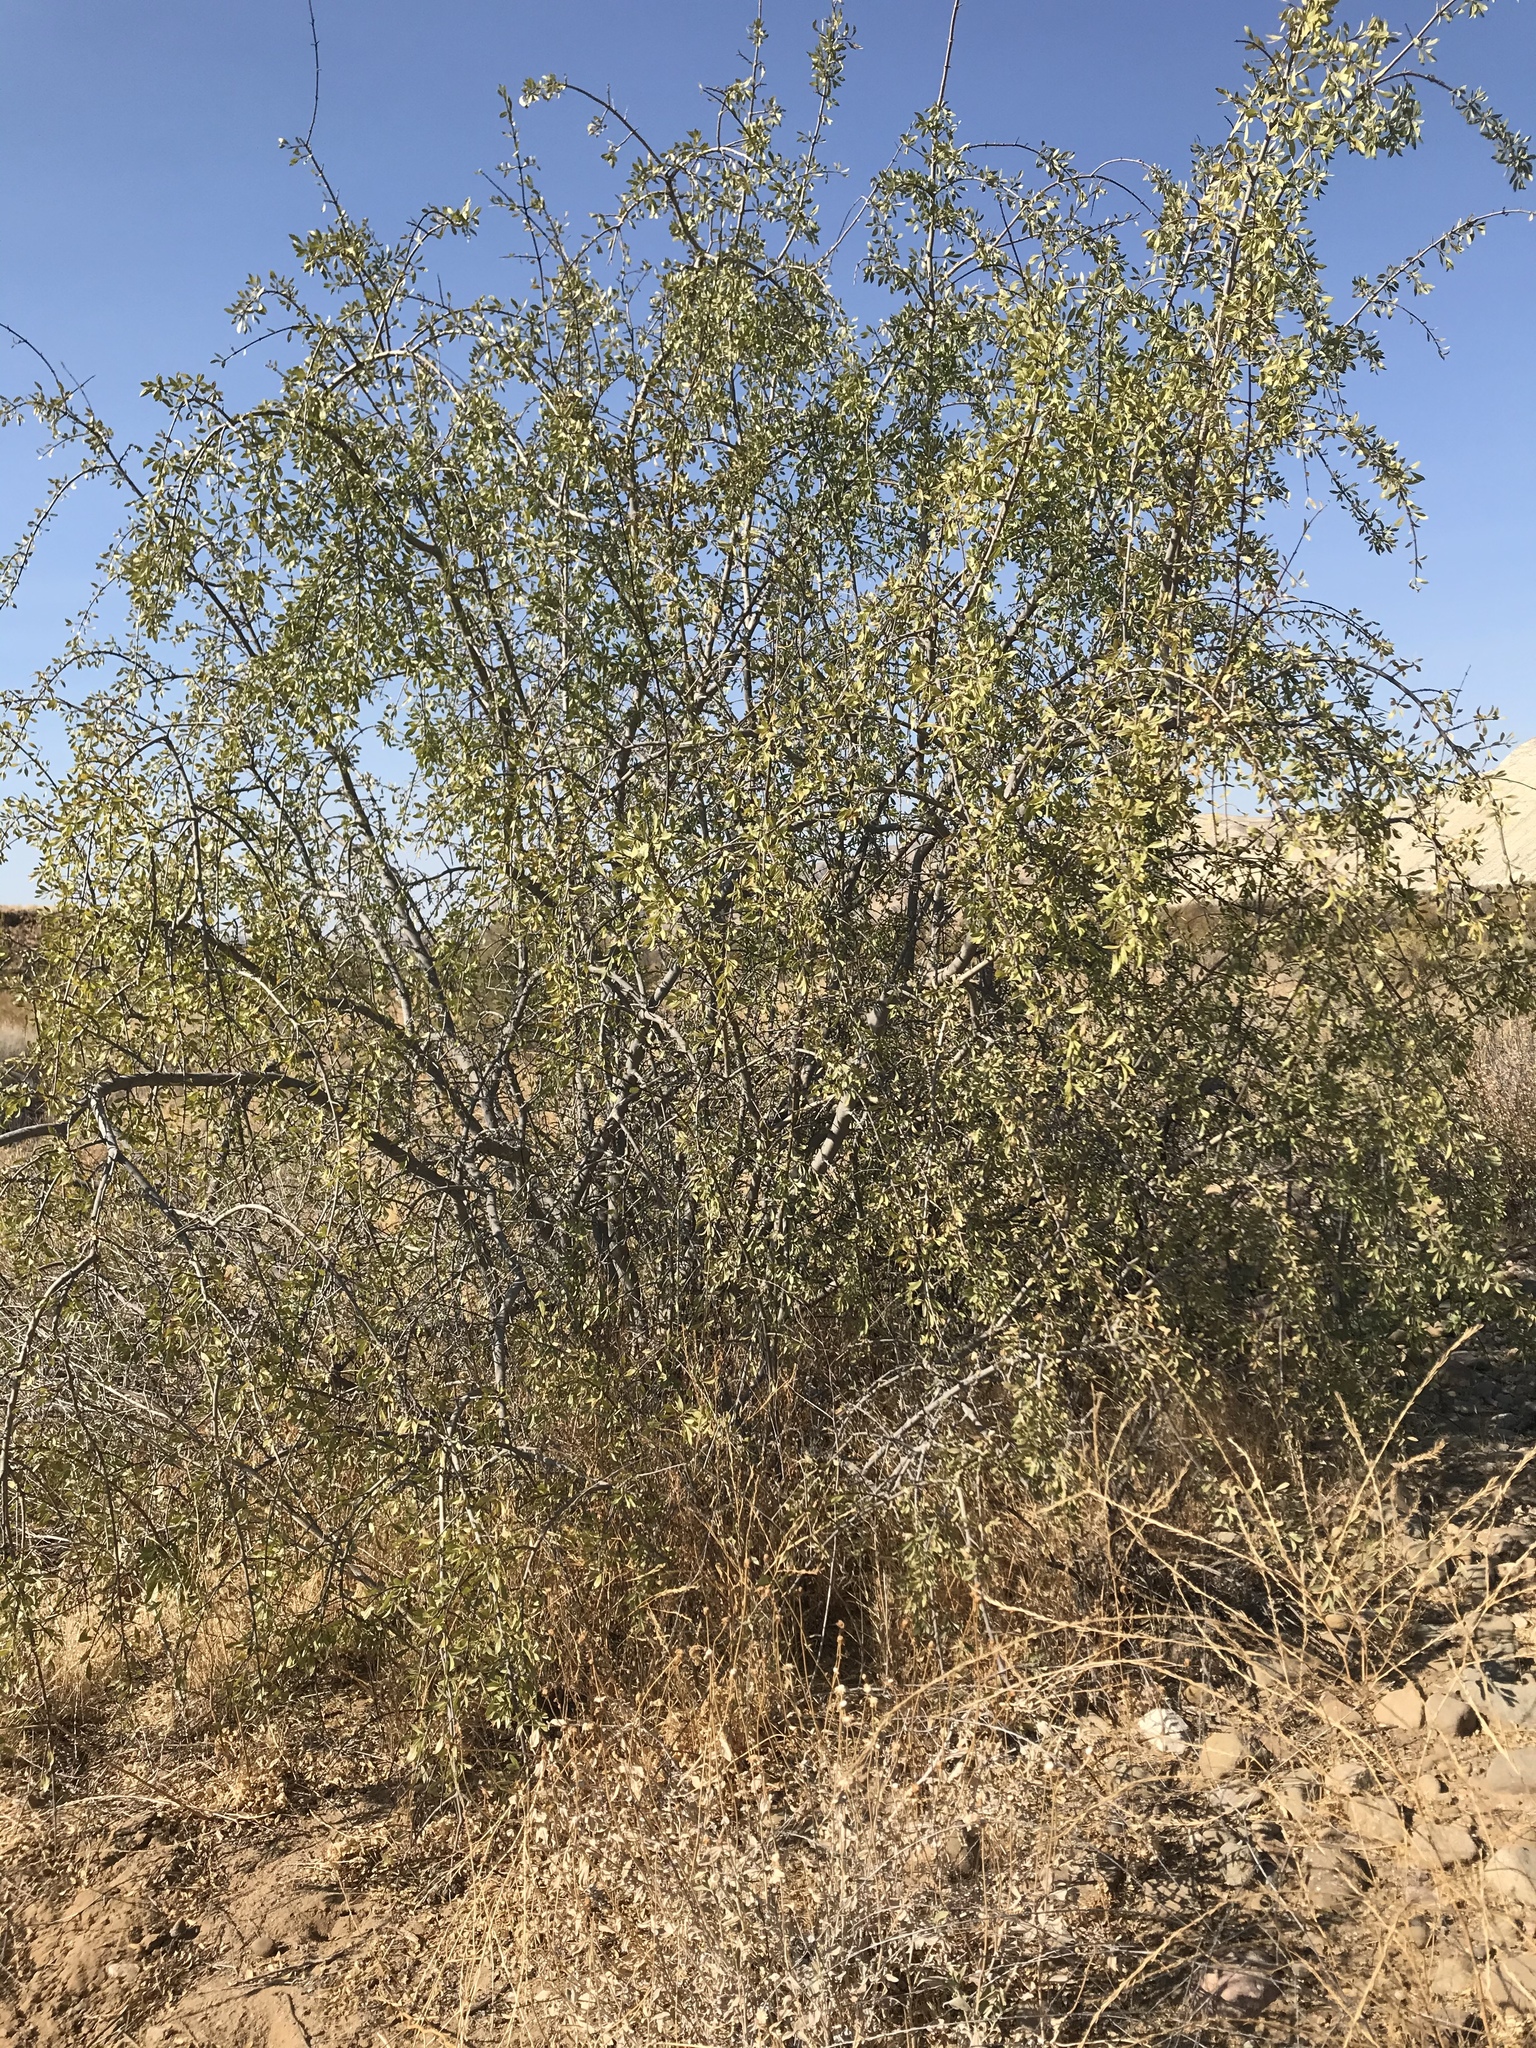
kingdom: Plantae
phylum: Tracheophyta
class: Magnoliopsida
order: Lamiales
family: Oleaceae
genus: Forestiera
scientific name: Forestiera pubescens
